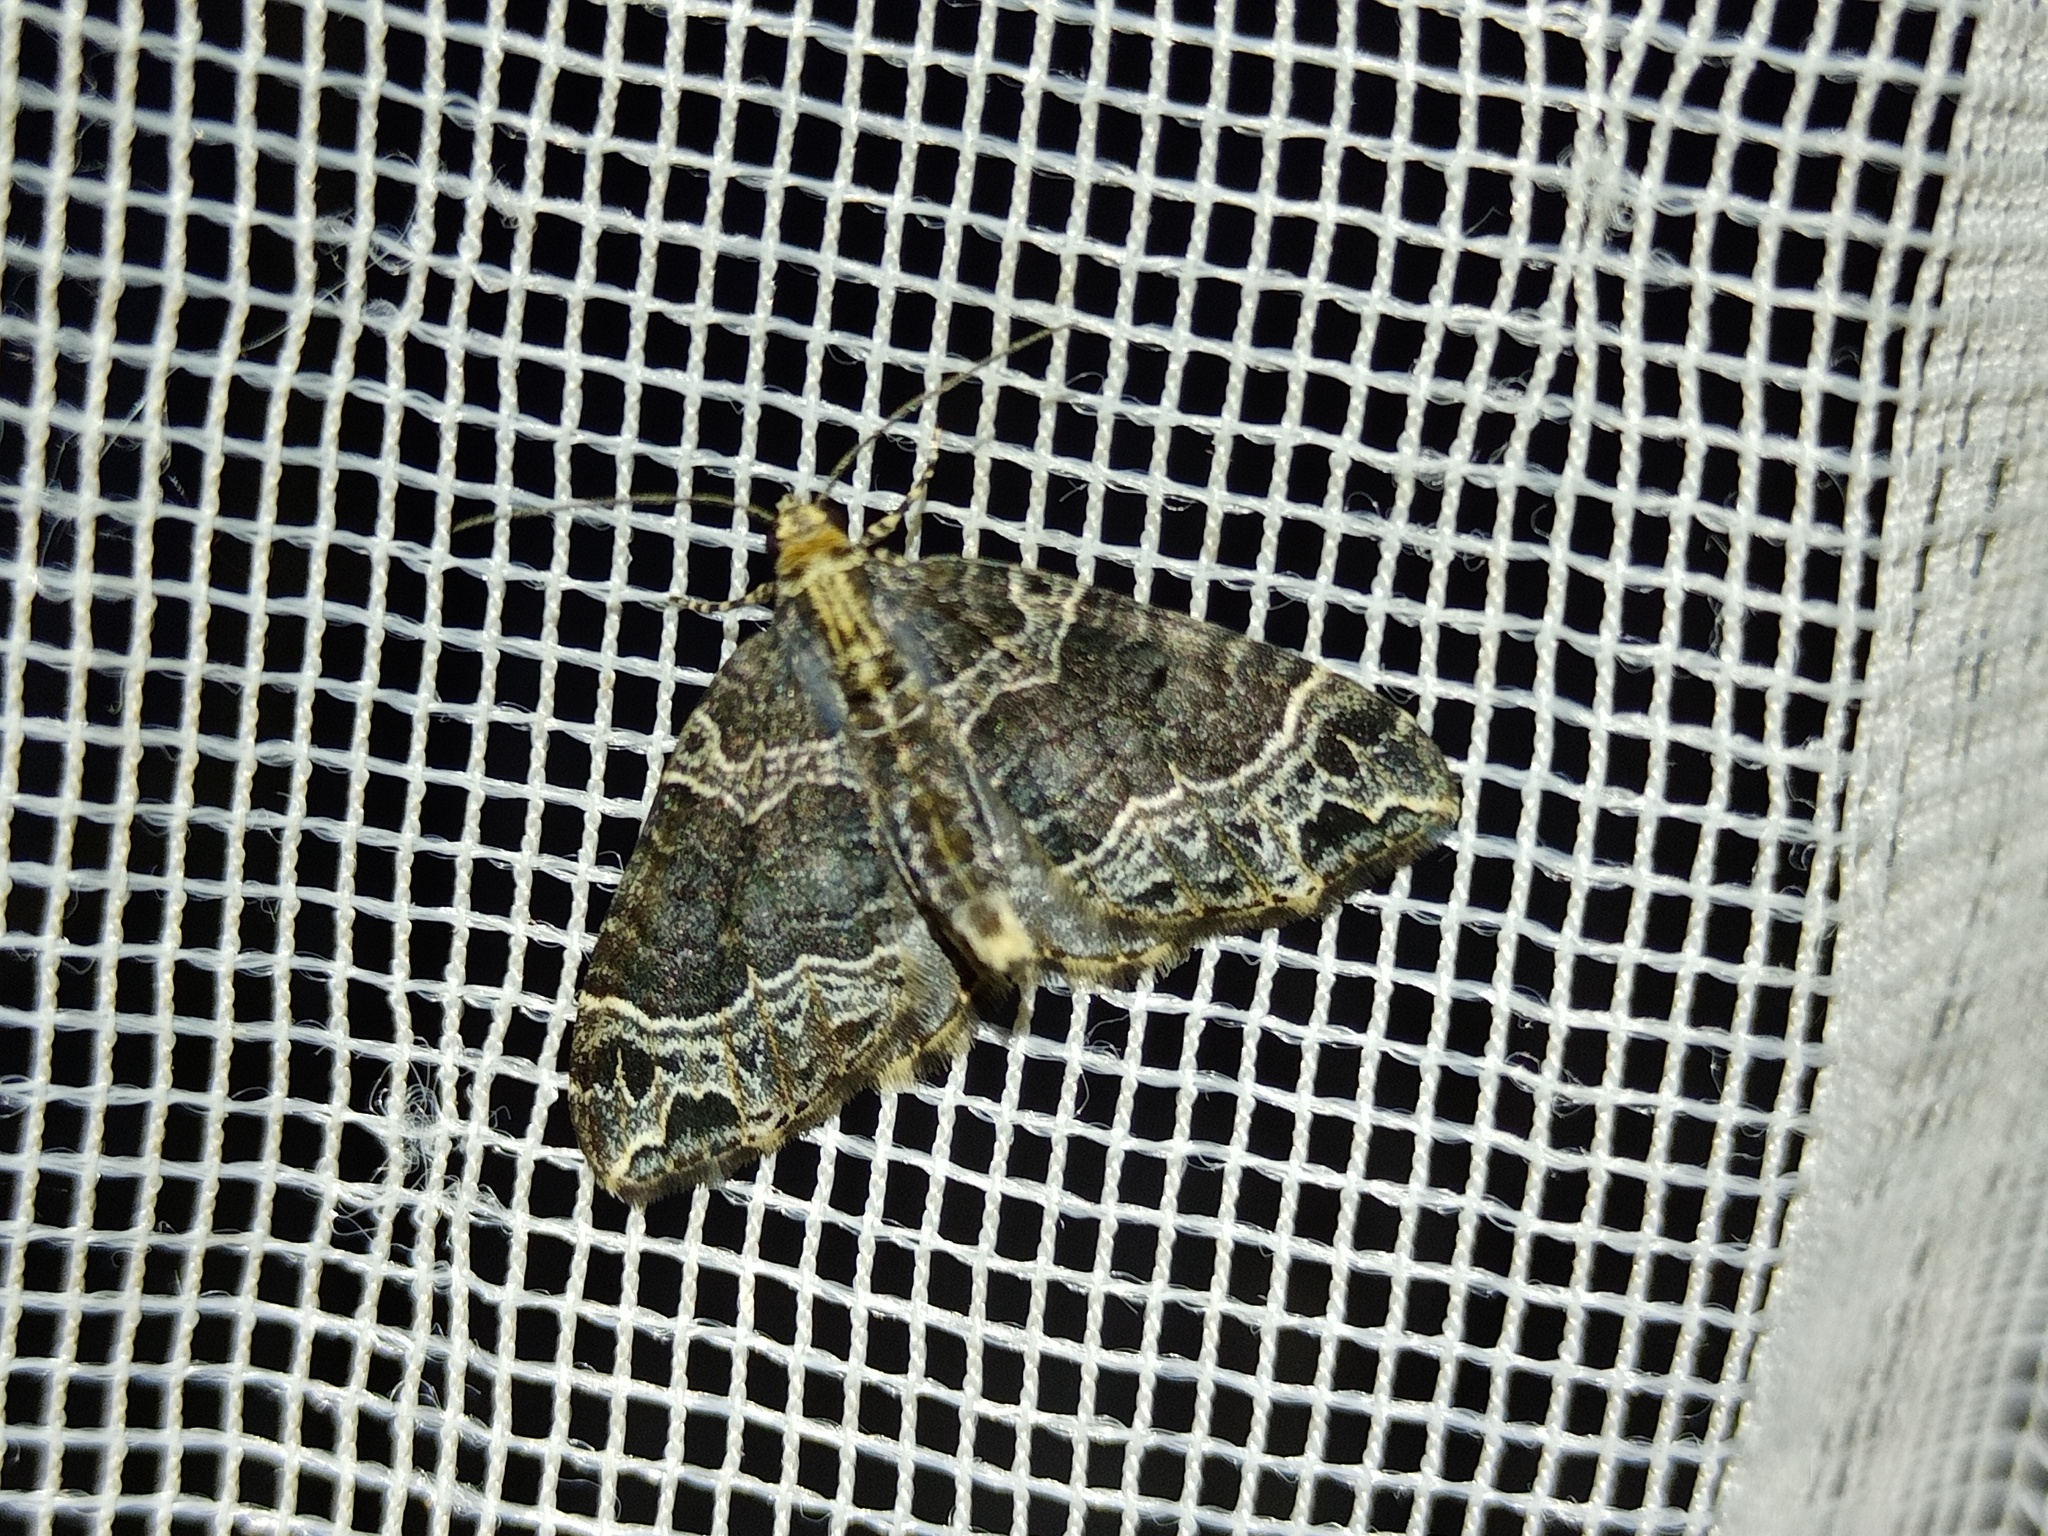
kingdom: Animalia
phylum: Arthropoda
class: Insecta
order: Lepidoptera
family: Geometridae
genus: Ecliptopera
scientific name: Ecliptopera silaceata
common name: Small phoenix
